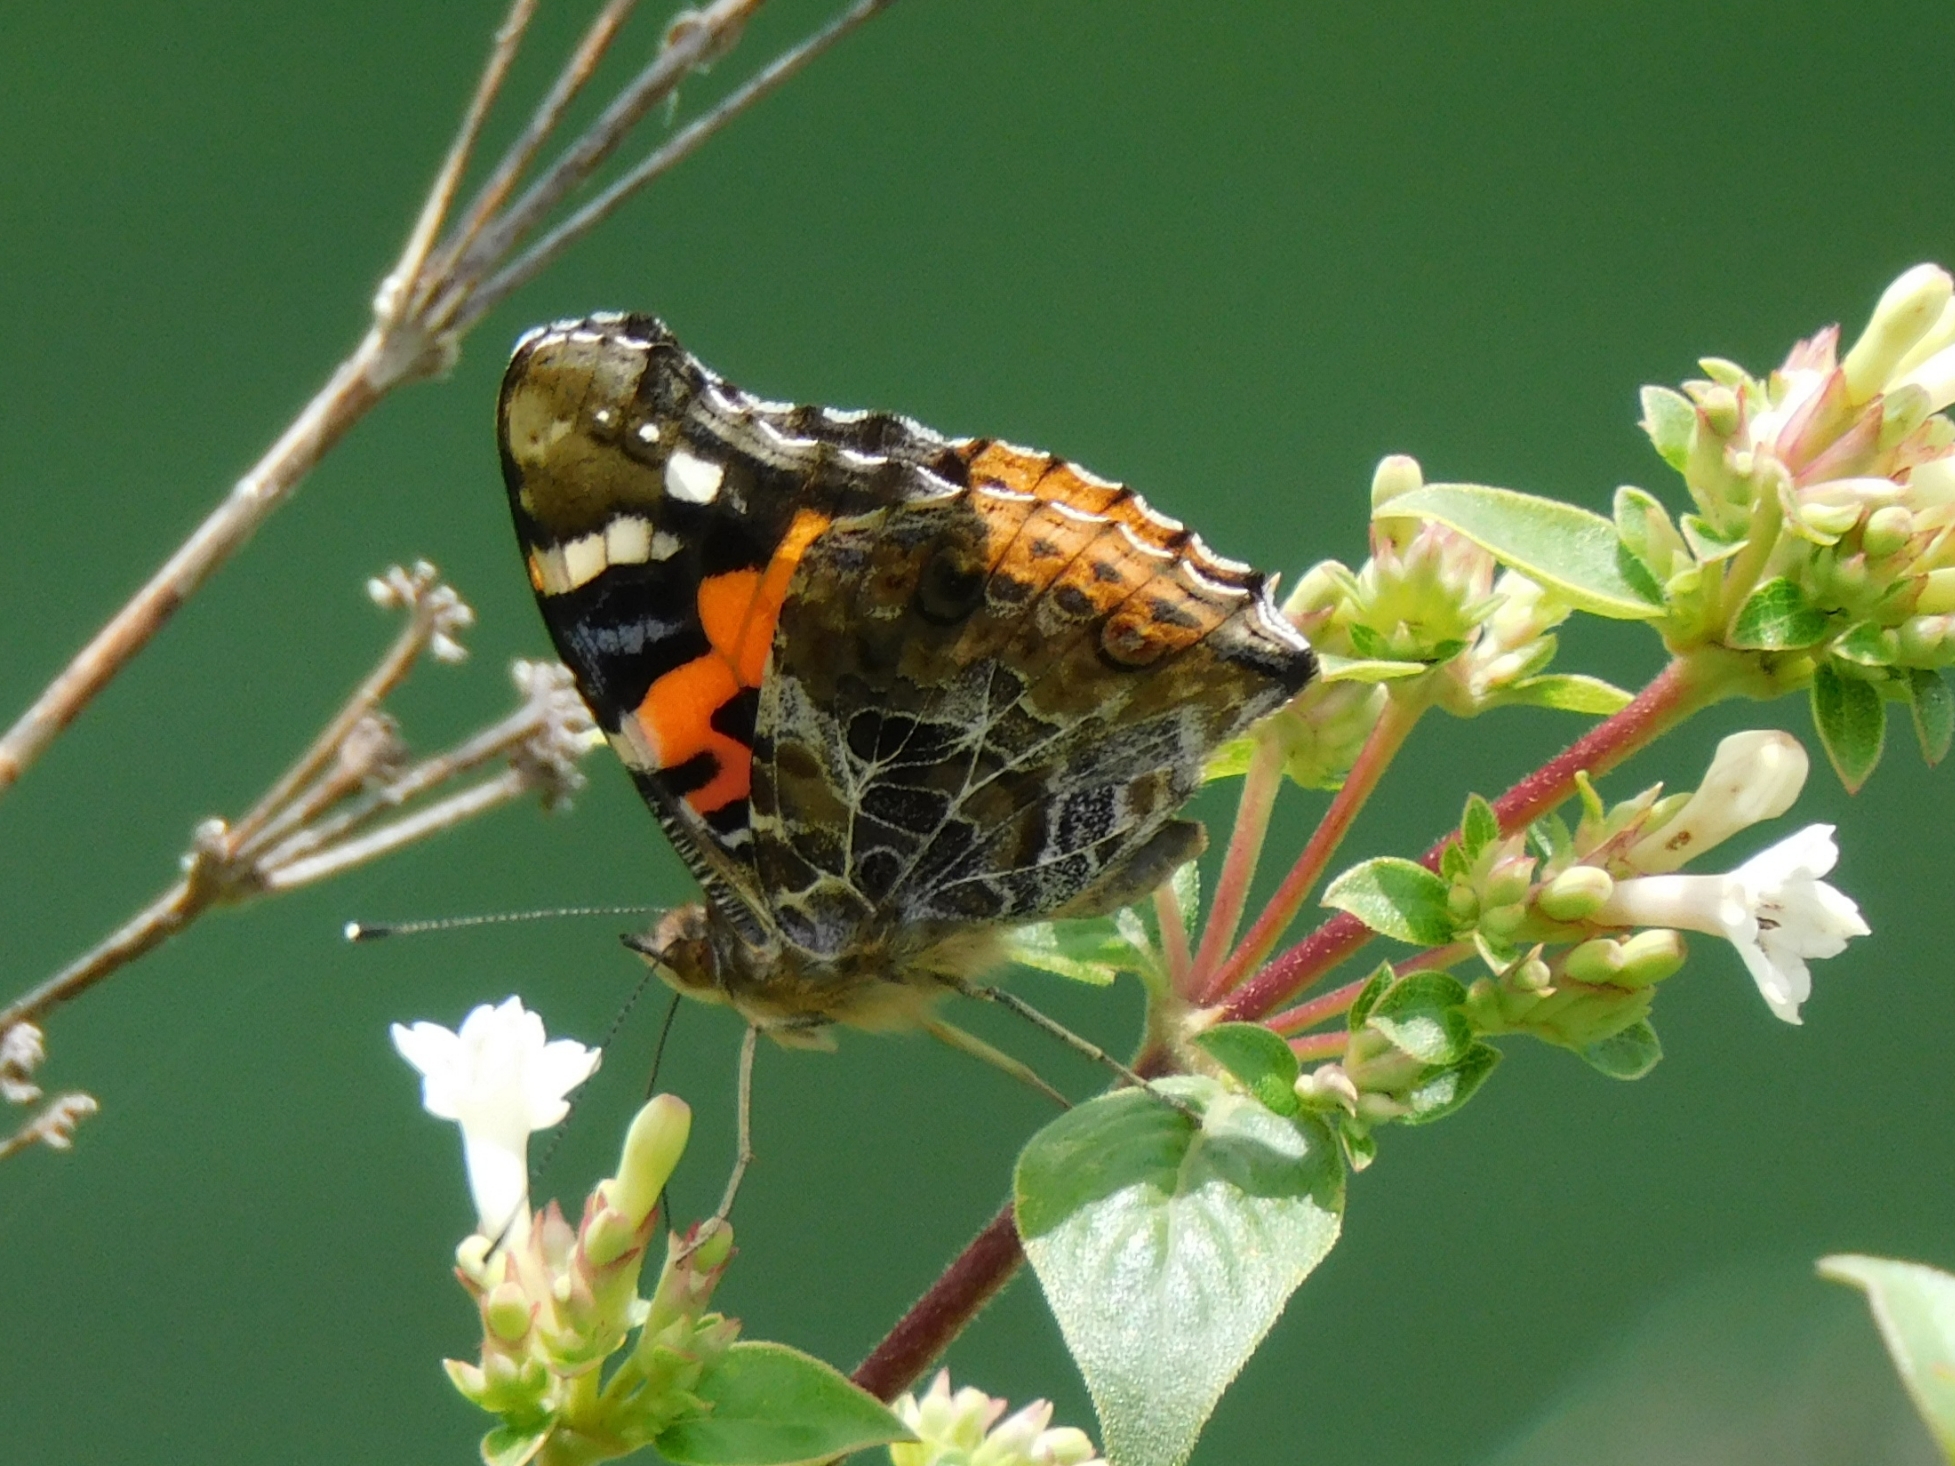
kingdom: Animalia
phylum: Arthropoda
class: Insecta
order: Lepidoptera
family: Nymphalidae
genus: Vanessa
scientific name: Vanessa indica
